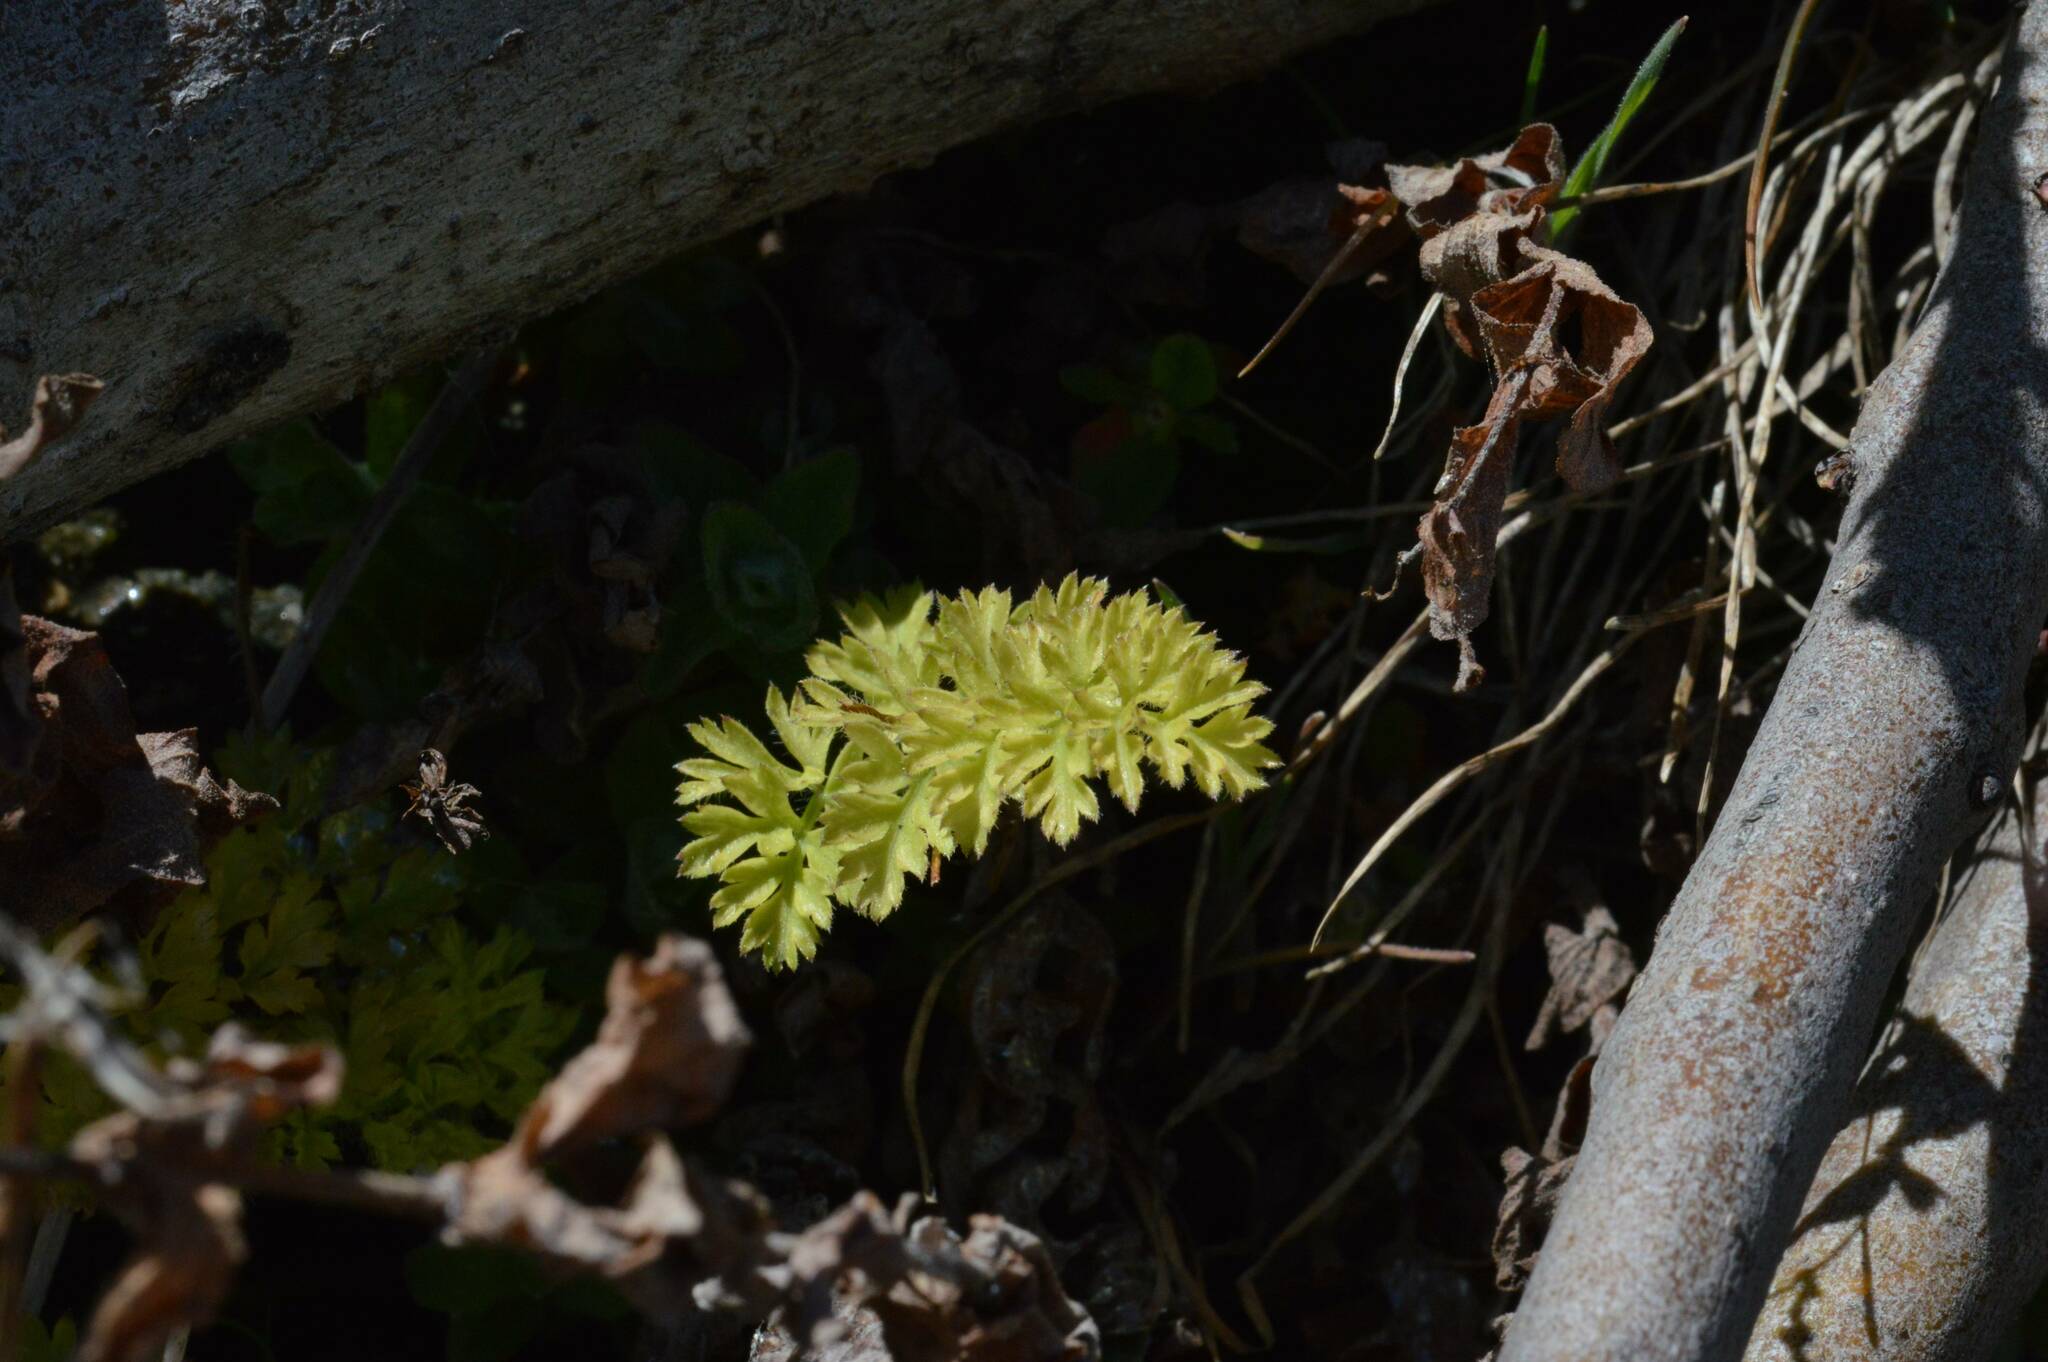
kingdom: Plantae
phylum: Tracheophyta
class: Magnoliopsida
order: Apiales
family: Apiaceae
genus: Daucus
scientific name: Daucus carota
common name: Wild carrot
